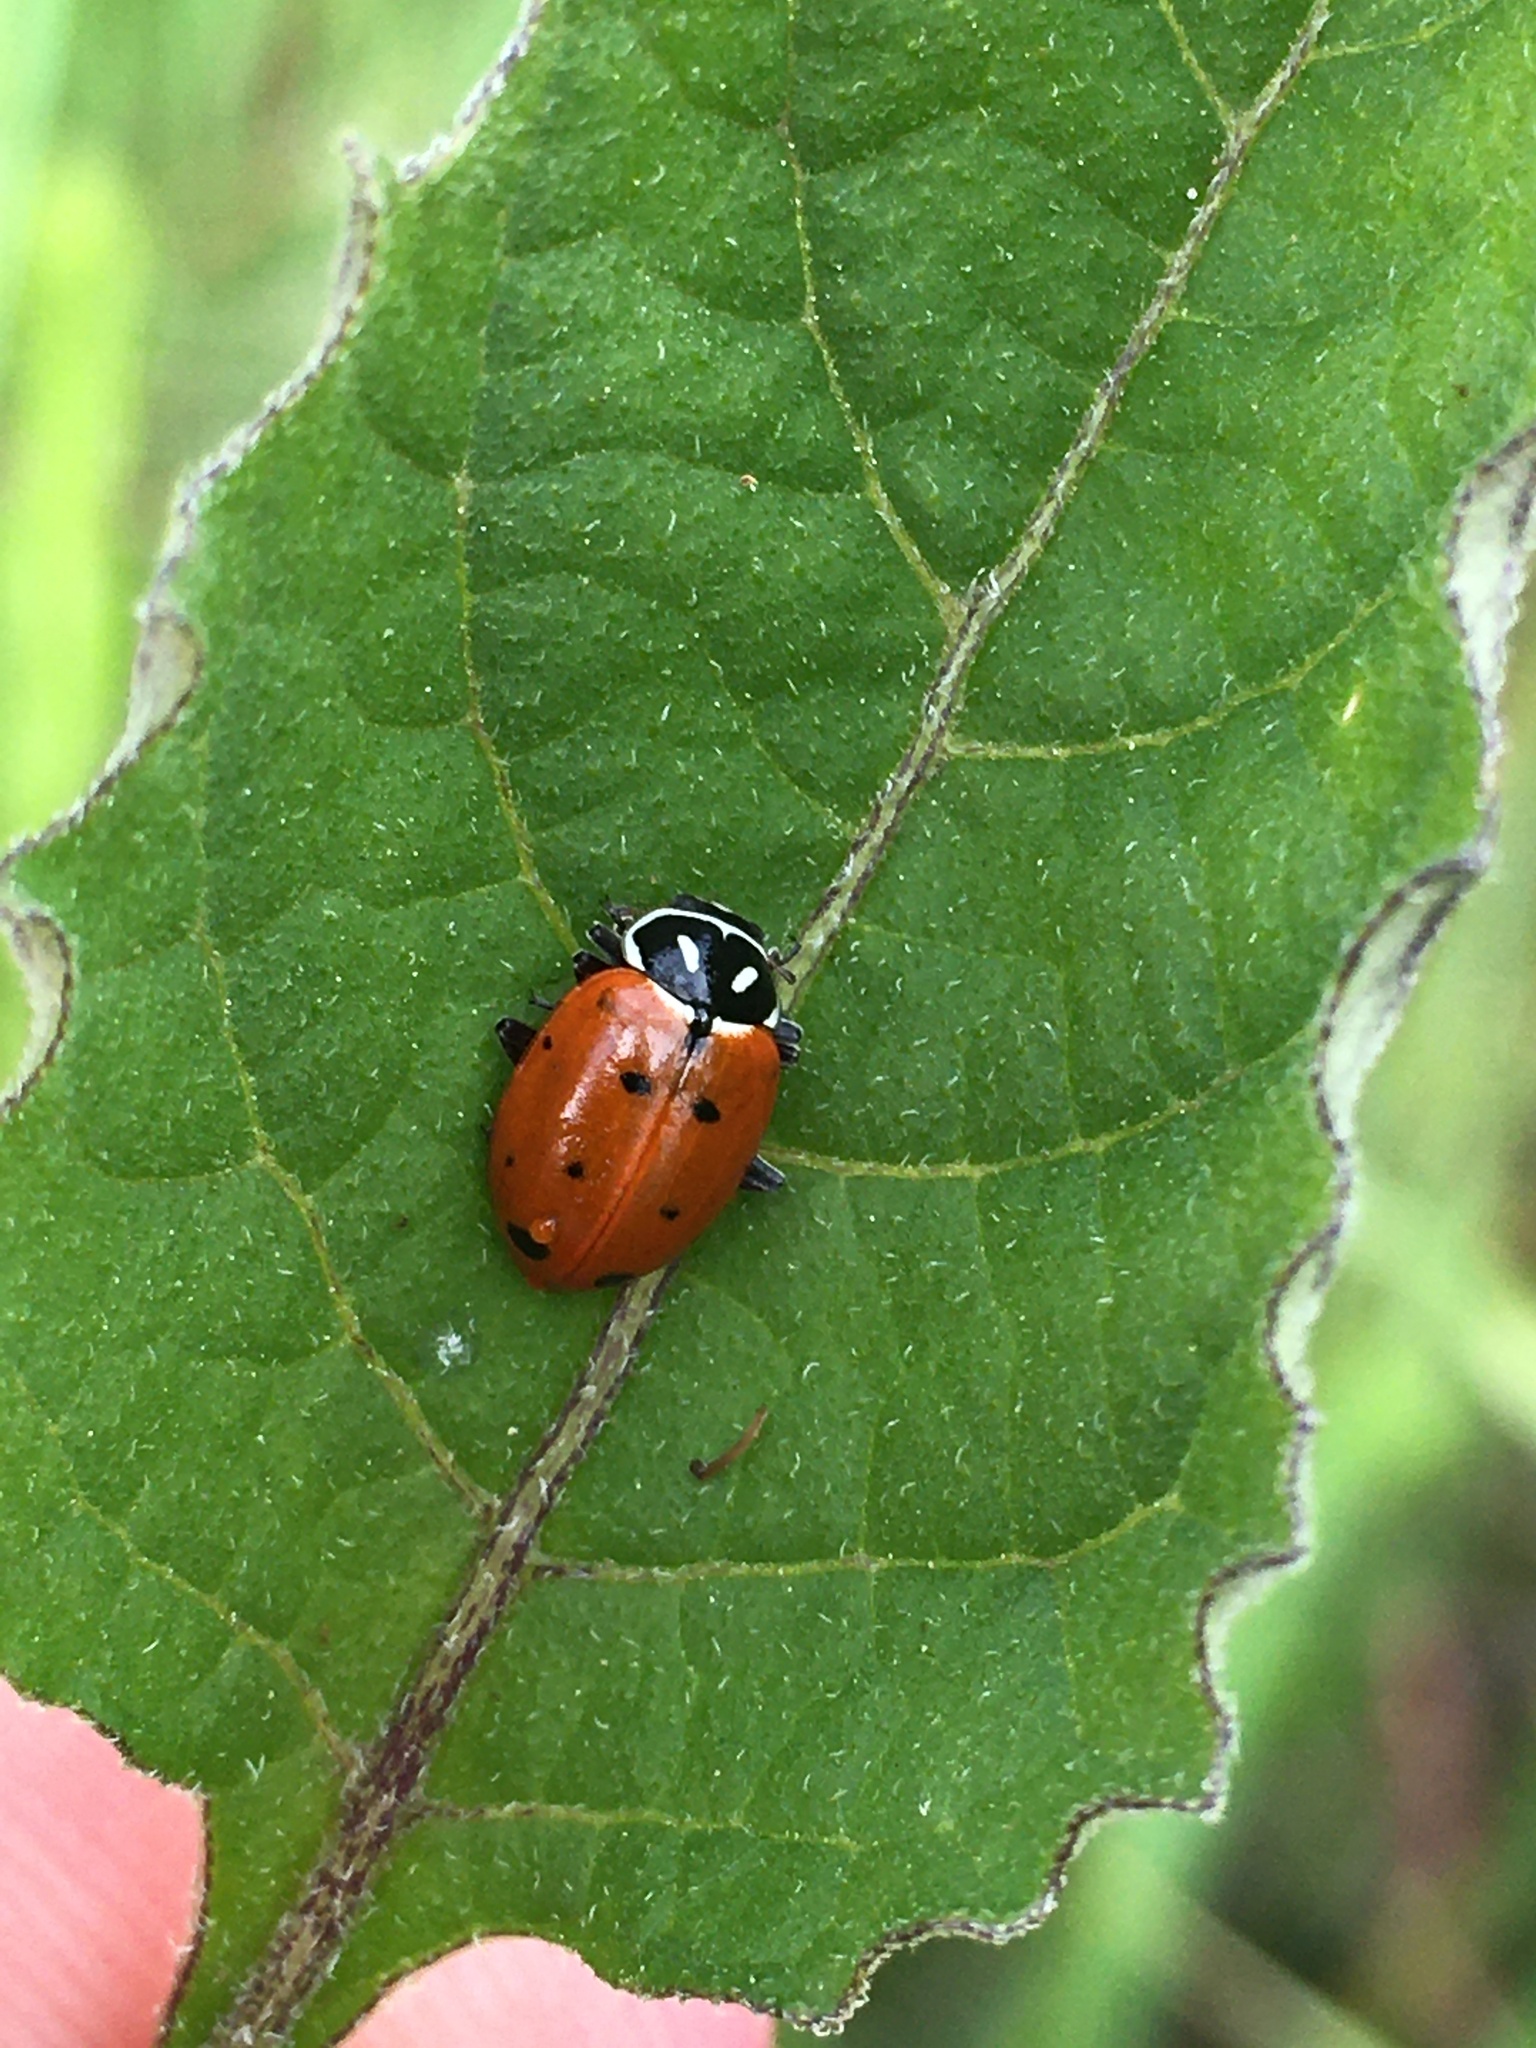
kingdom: Animalia
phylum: Arthropoda
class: Insecta
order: Coleoptera
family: Coccinellidae
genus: Hippodamia
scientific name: Hippodamia convergens
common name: Convergent lady beetle
